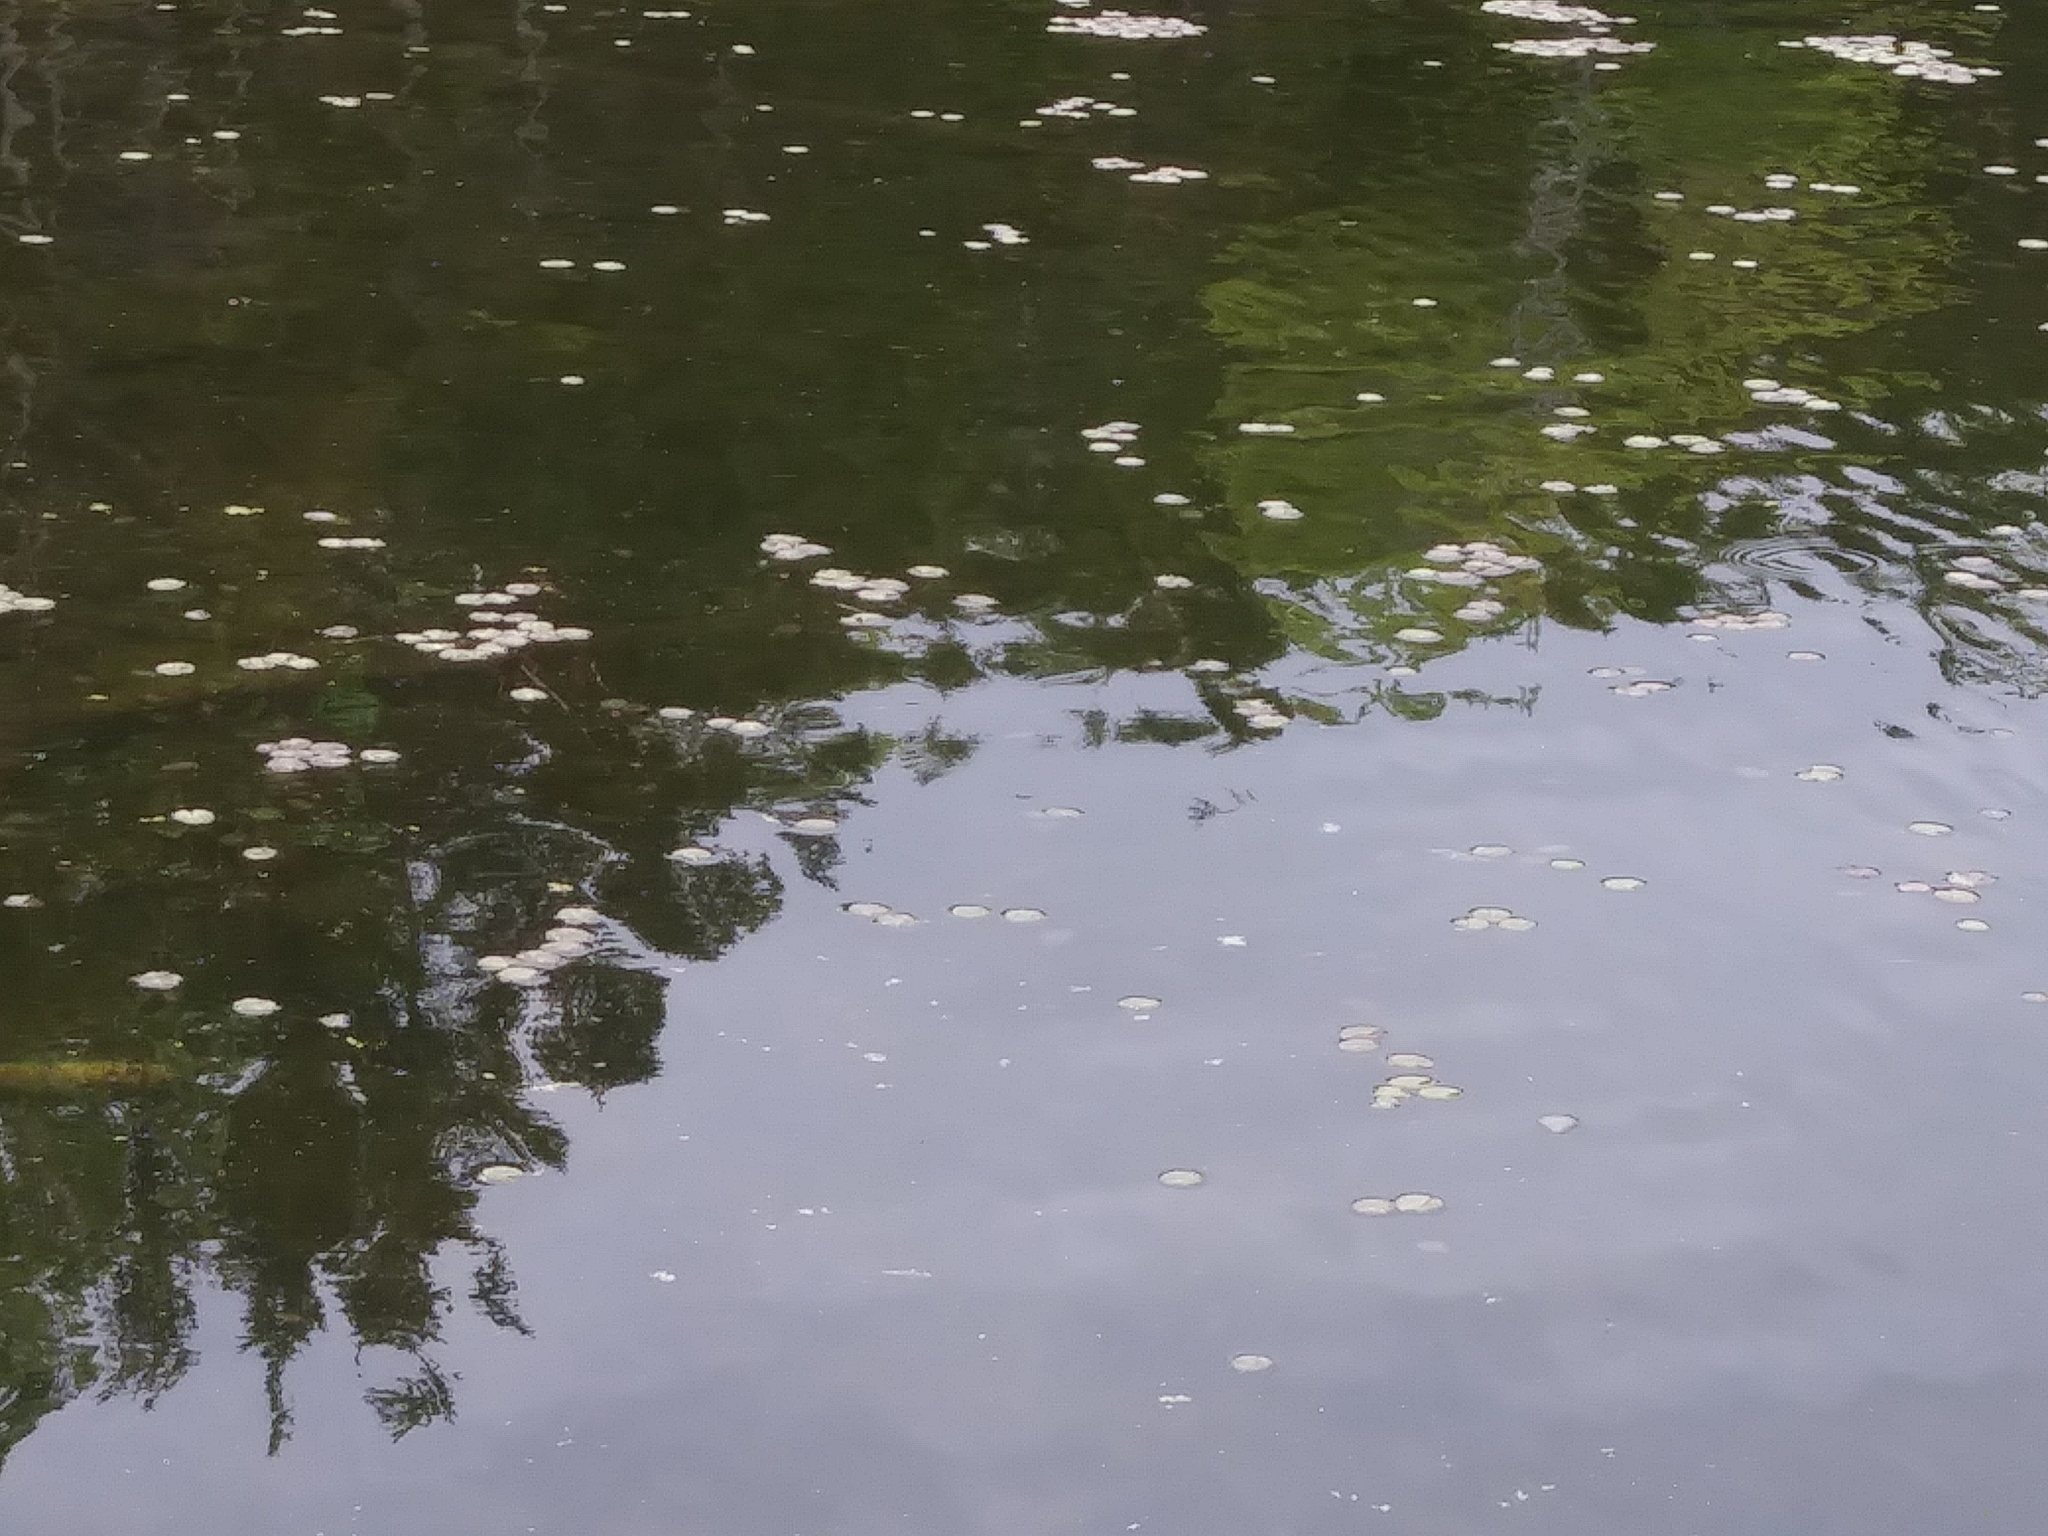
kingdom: Plantae
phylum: Tracheophyta
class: Magnoliopsida
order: Nymphaeales
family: Cabombaceae
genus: Brasenia
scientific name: Brasenia schreberi
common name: Water-shield
